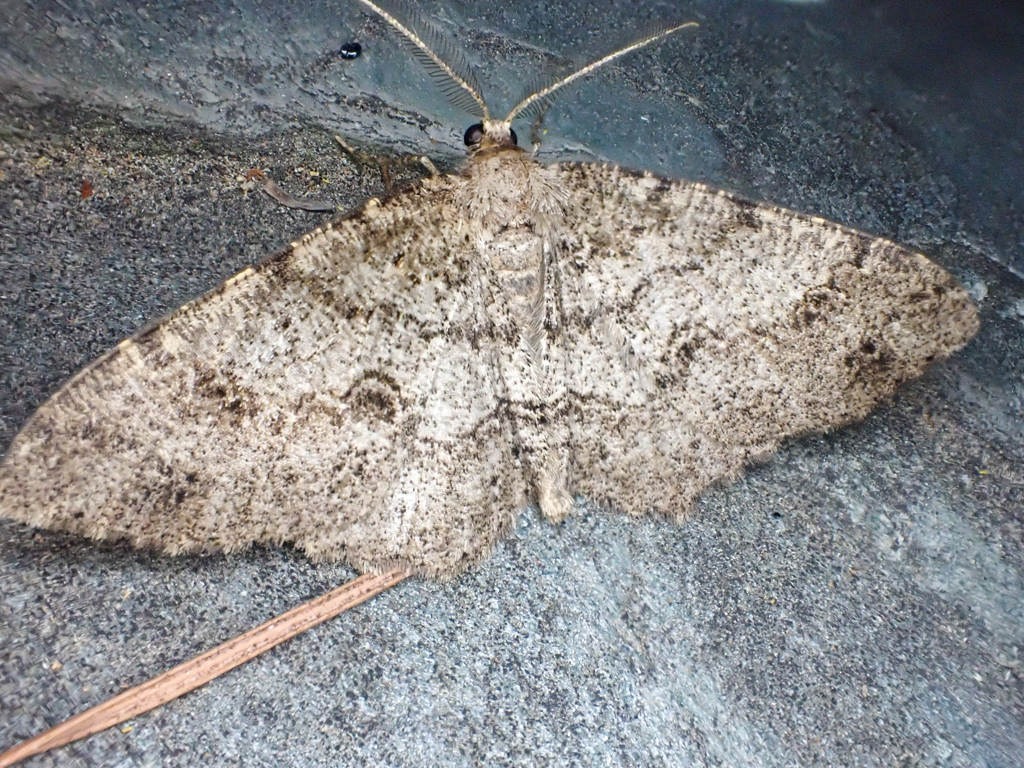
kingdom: Animalia
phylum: Arthropoda
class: Insecta
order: Lepidoptera
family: Geometridae
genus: Melanolophia
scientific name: Melanolophia imitata
